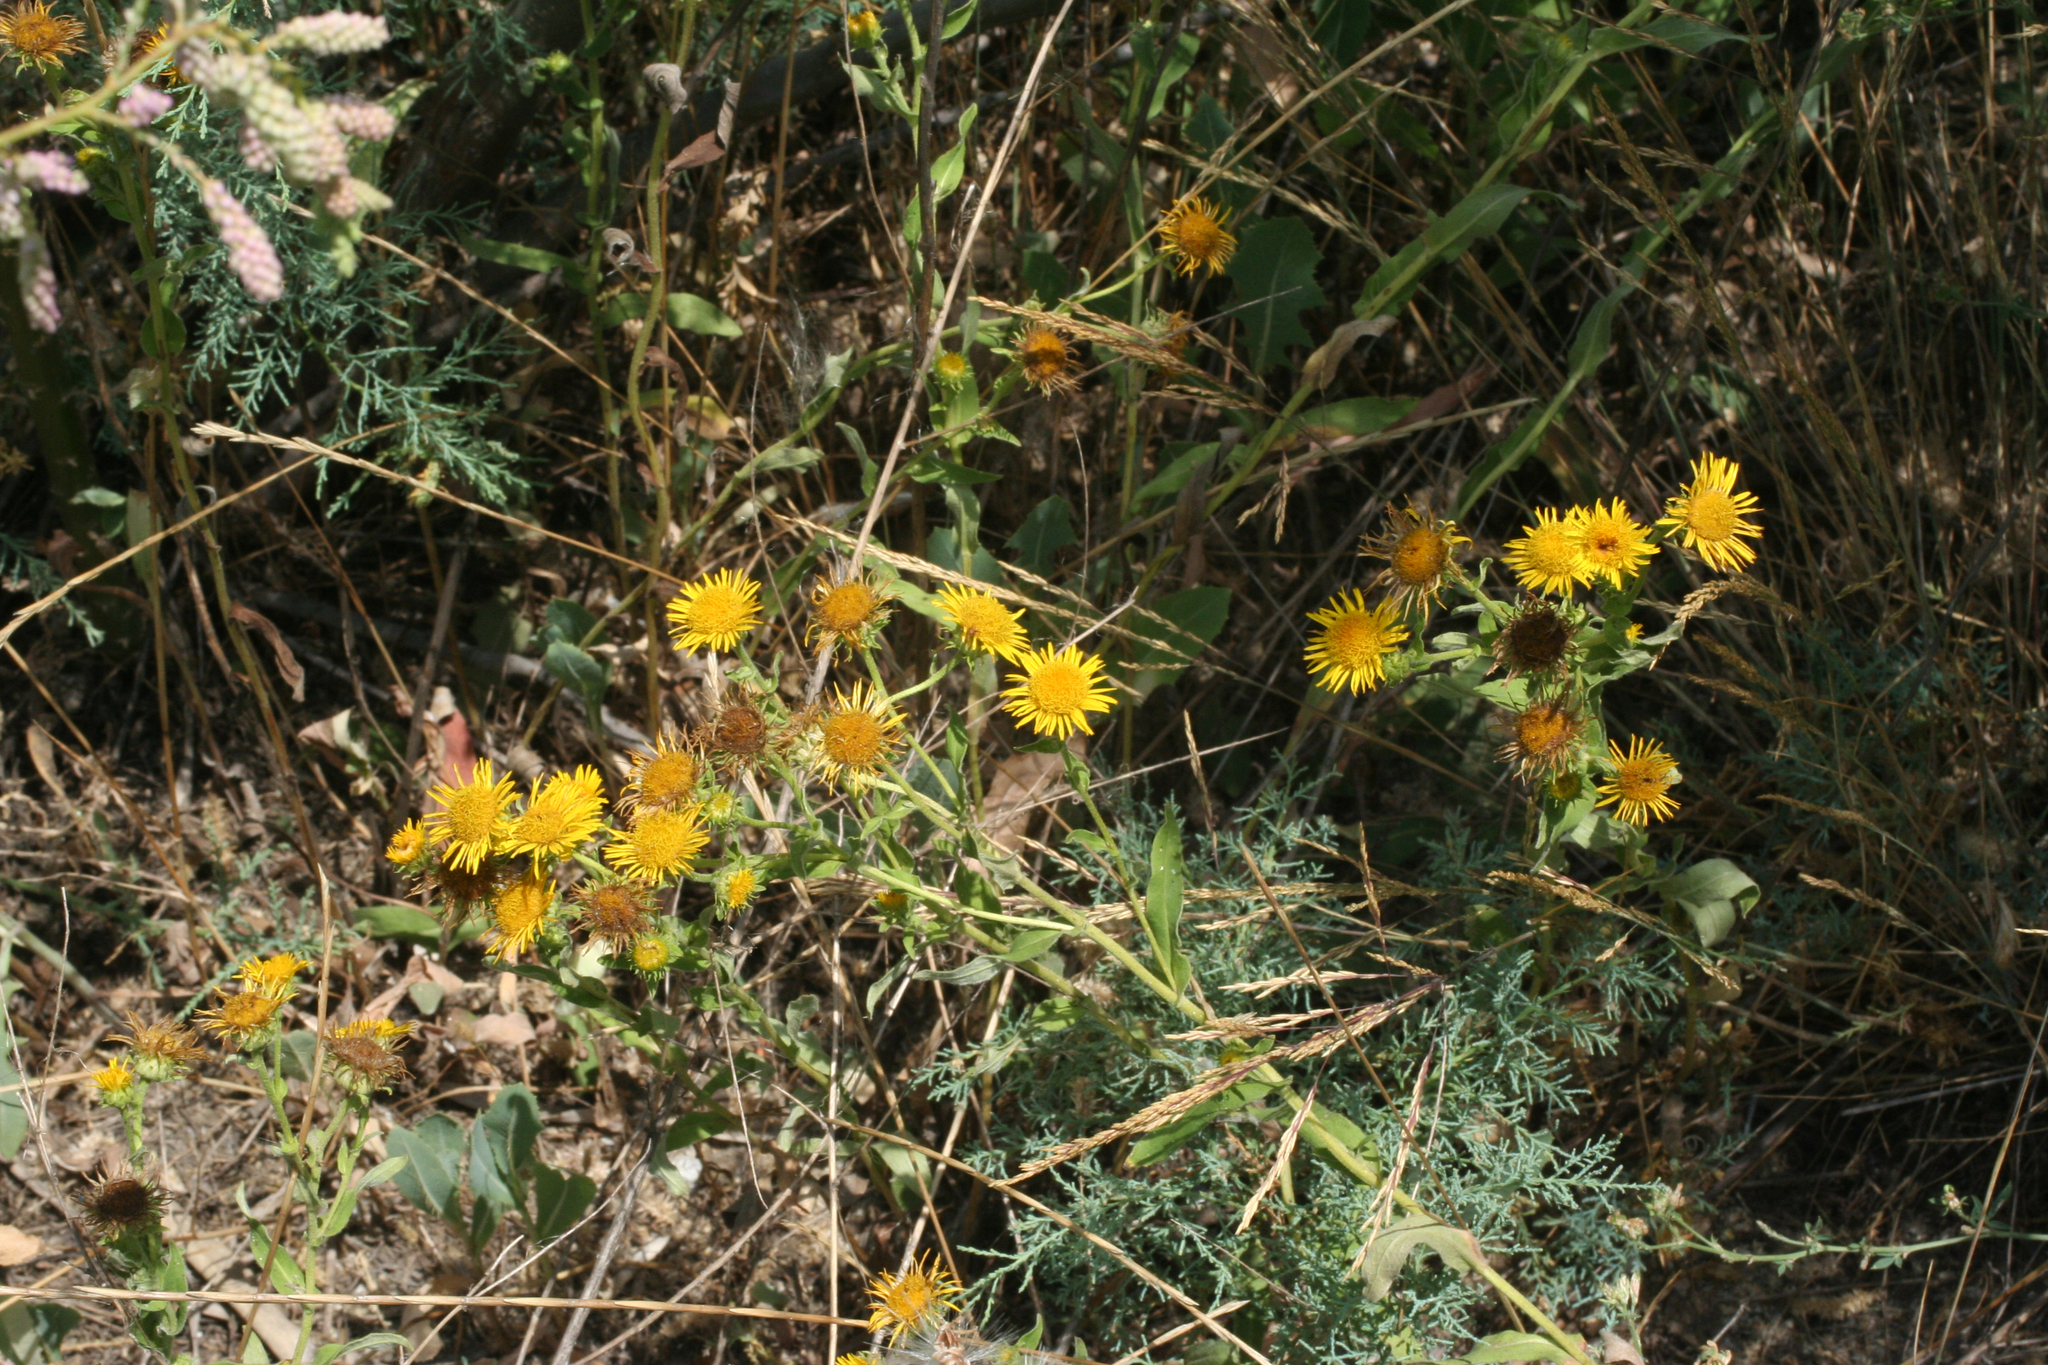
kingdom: Plantae
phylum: Tracheophyta
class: Magnoliopsida
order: Asterales
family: Asteraceae
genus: Pentanema
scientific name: Pentanema britannicum
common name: British elecampane
